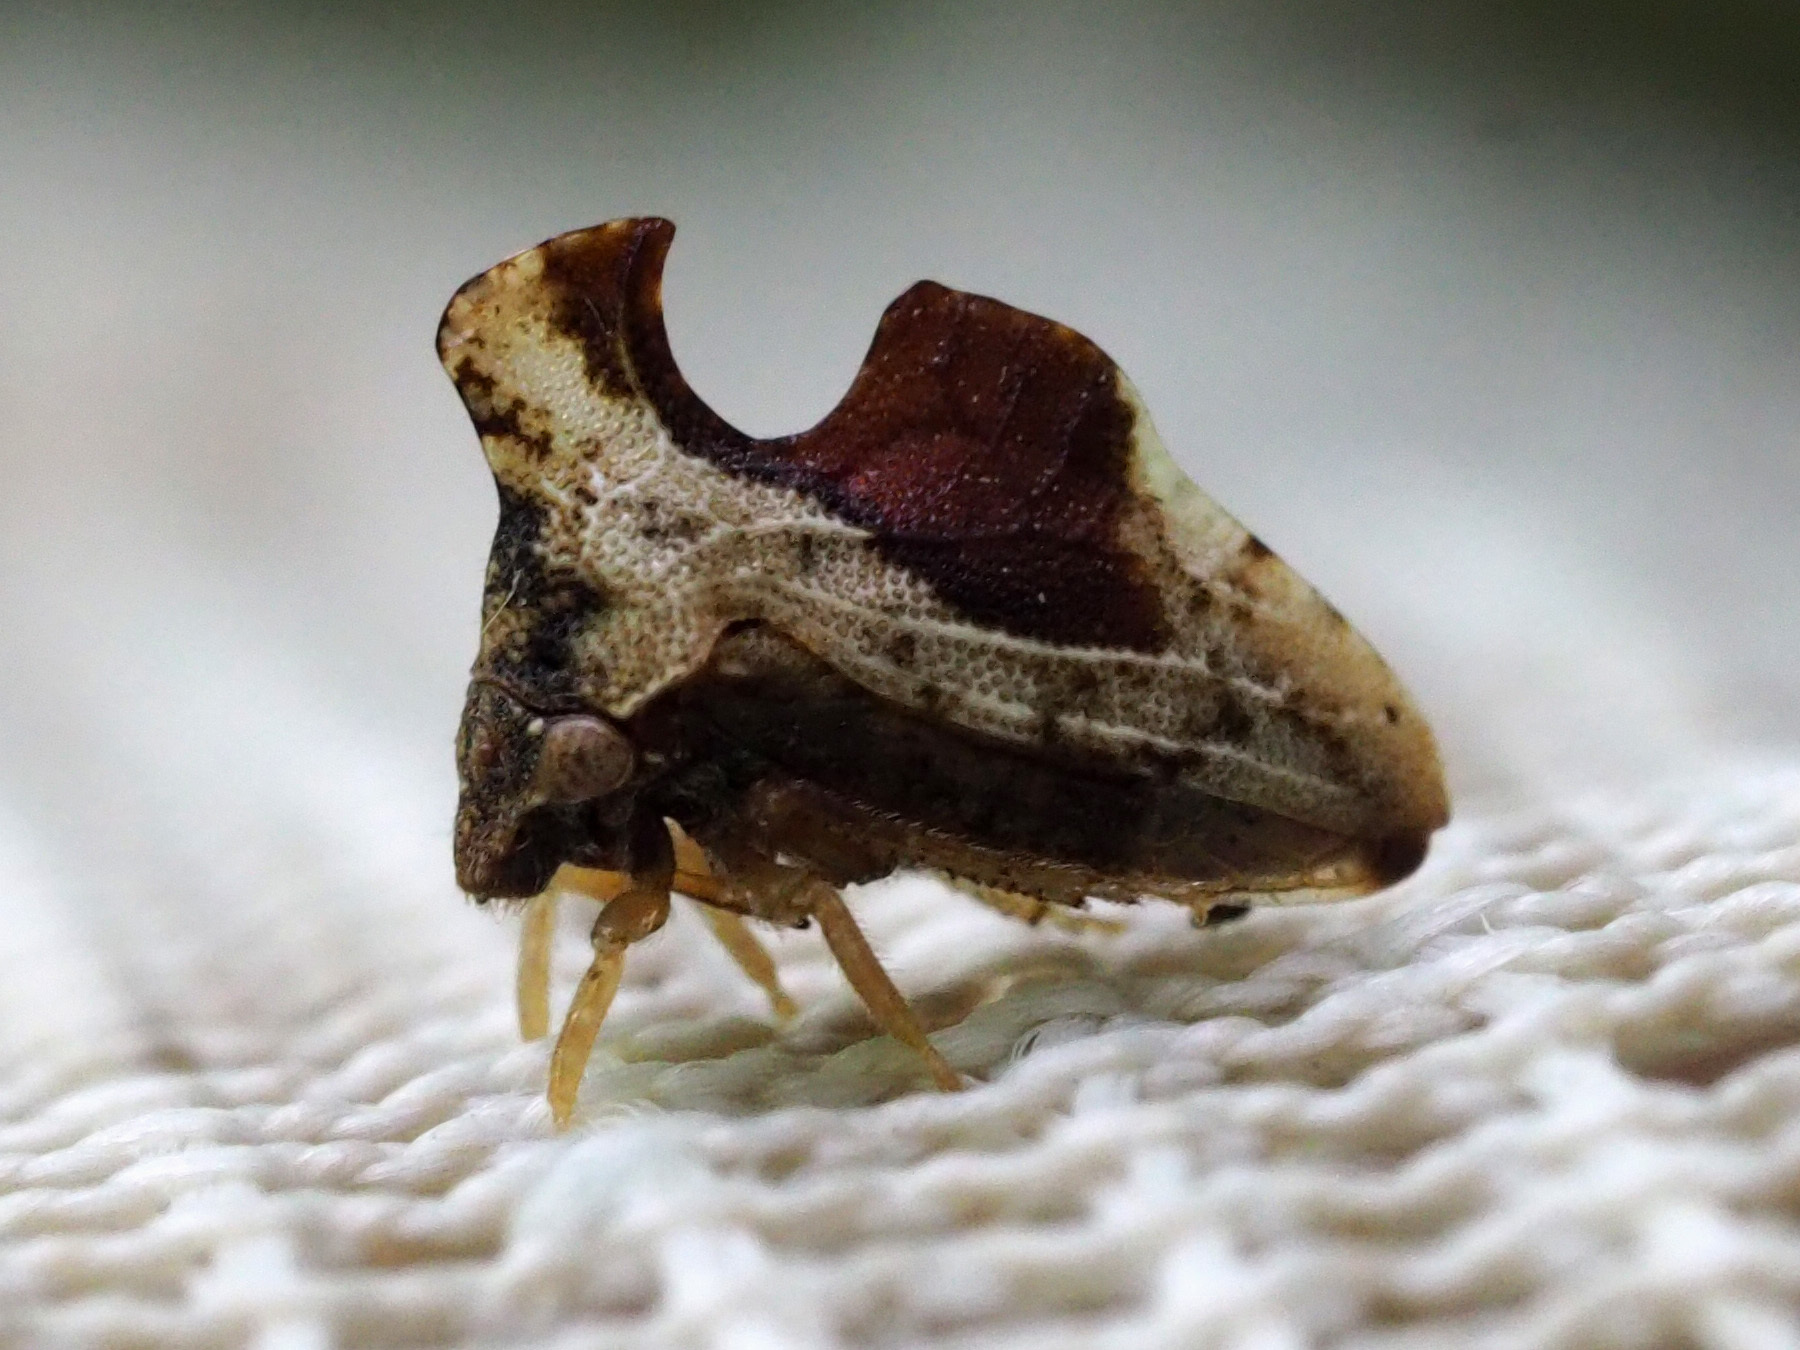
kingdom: Animalia
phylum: Arthropoda
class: Insecta
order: Hemiptera
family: Membracidae
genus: Entylia
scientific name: Entylia carinata
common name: Keeled treehopper
